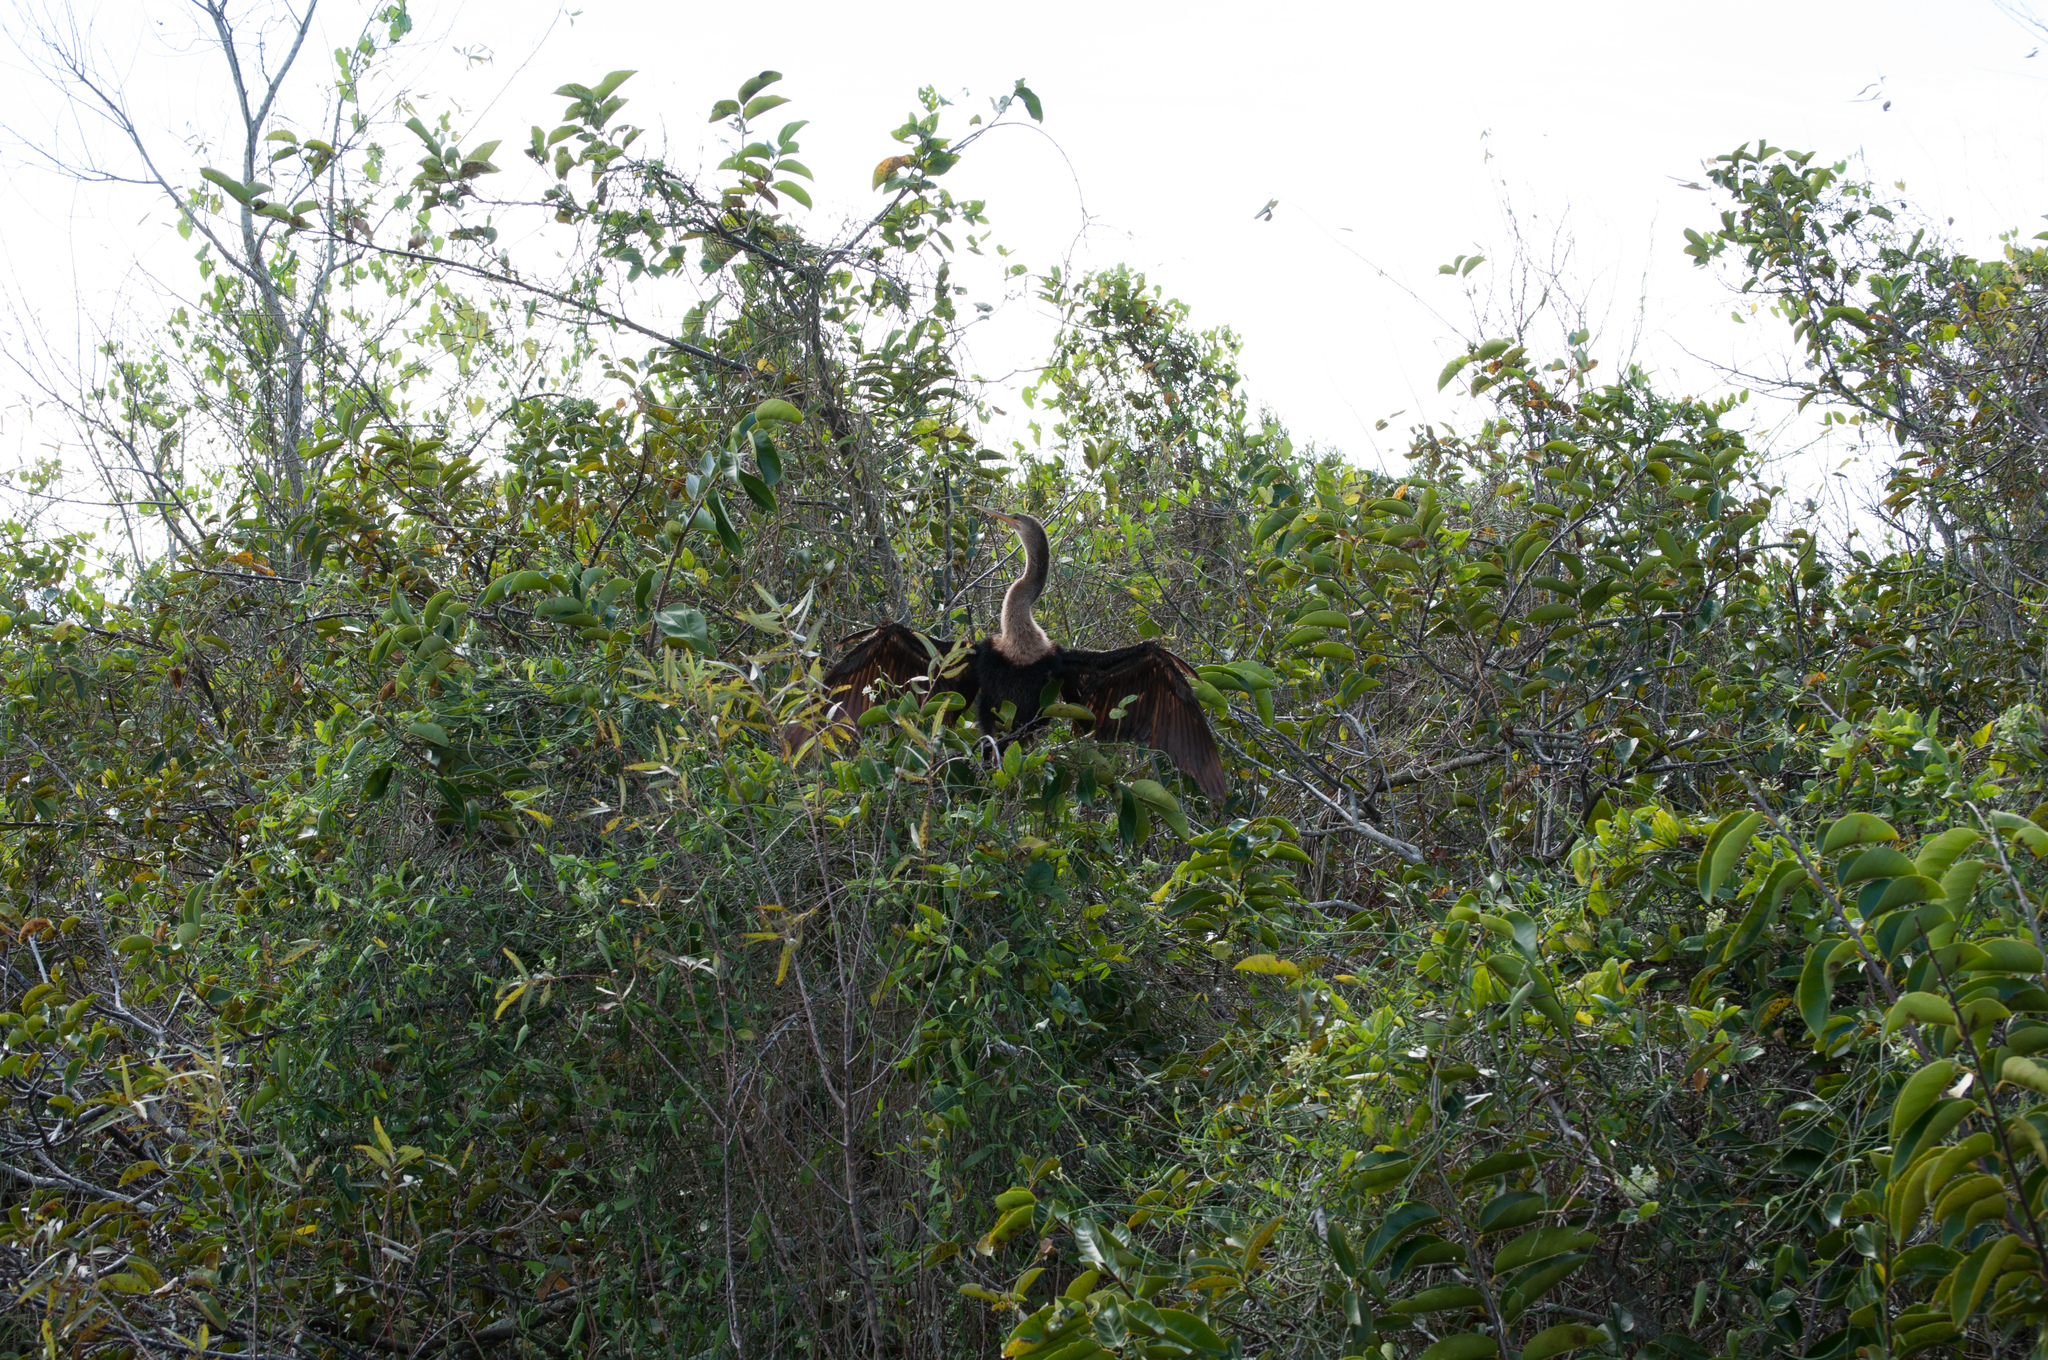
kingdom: Animalia
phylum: Chordata
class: Aves
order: Suliformes
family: Anhingidae
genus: Anhinga
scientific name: Anhinga anhinga
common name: Anhinga
